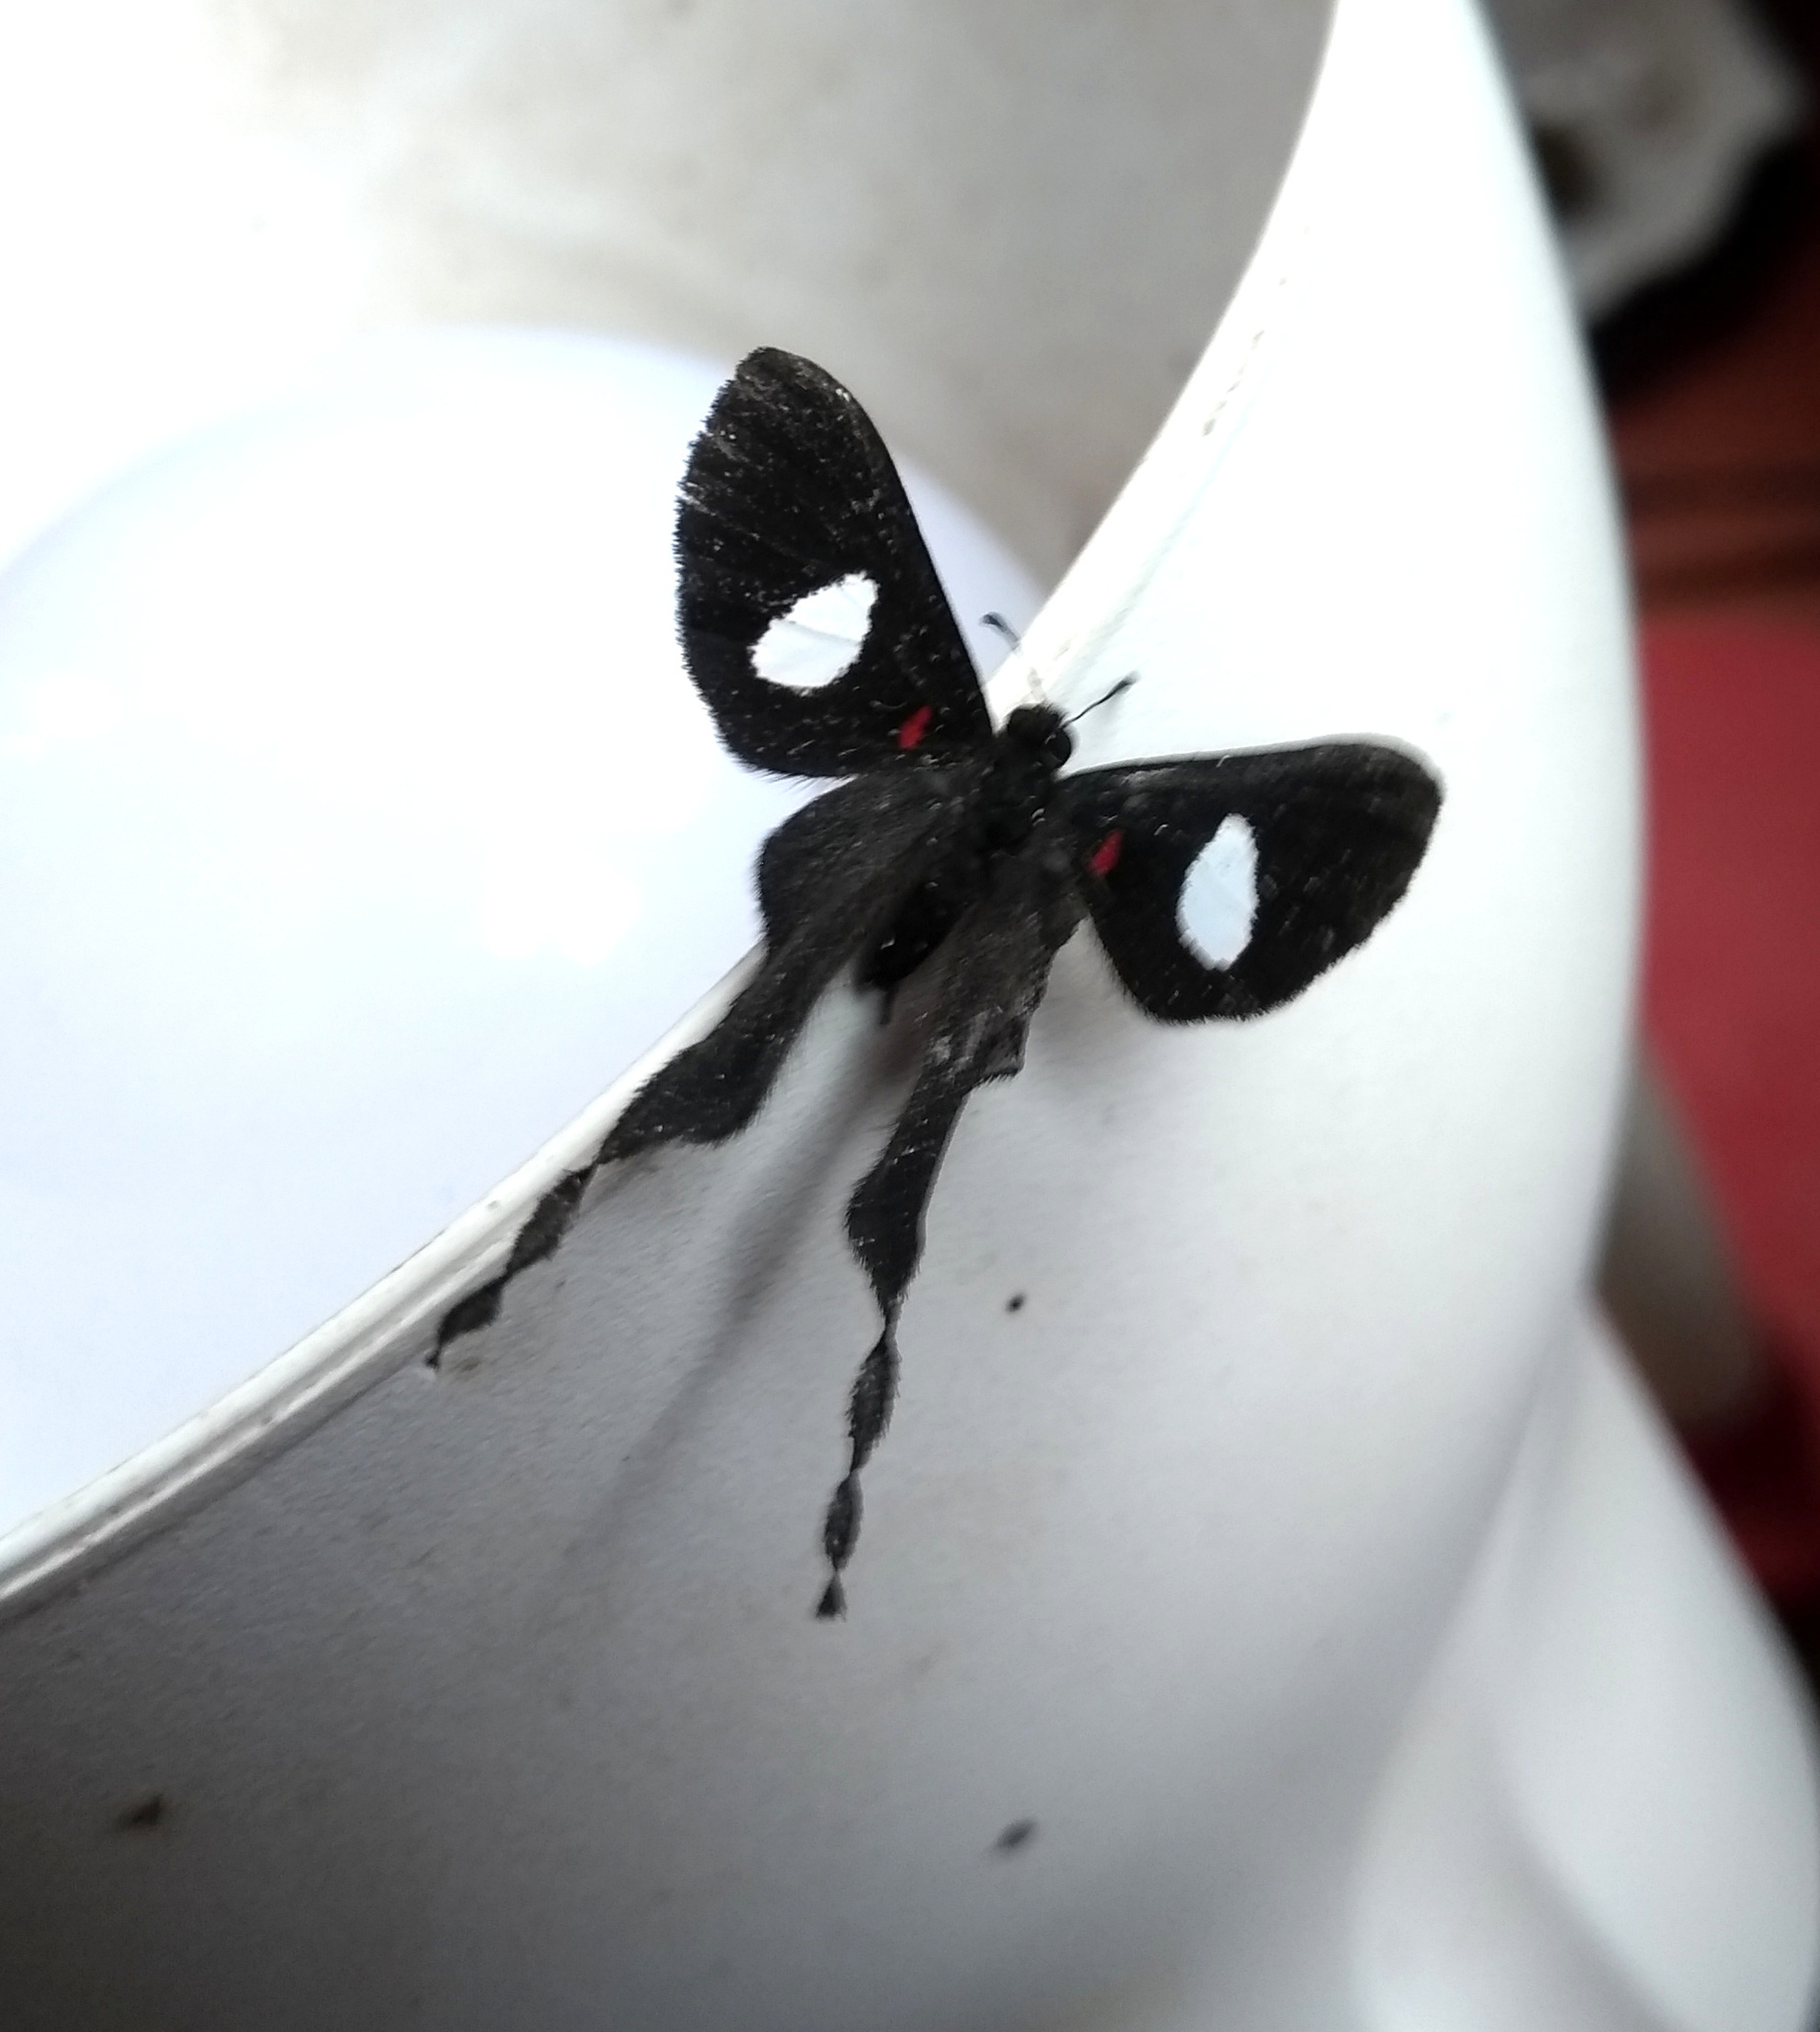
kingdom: Animalia
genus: Syrmatia
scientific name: Syrmatia nyx
